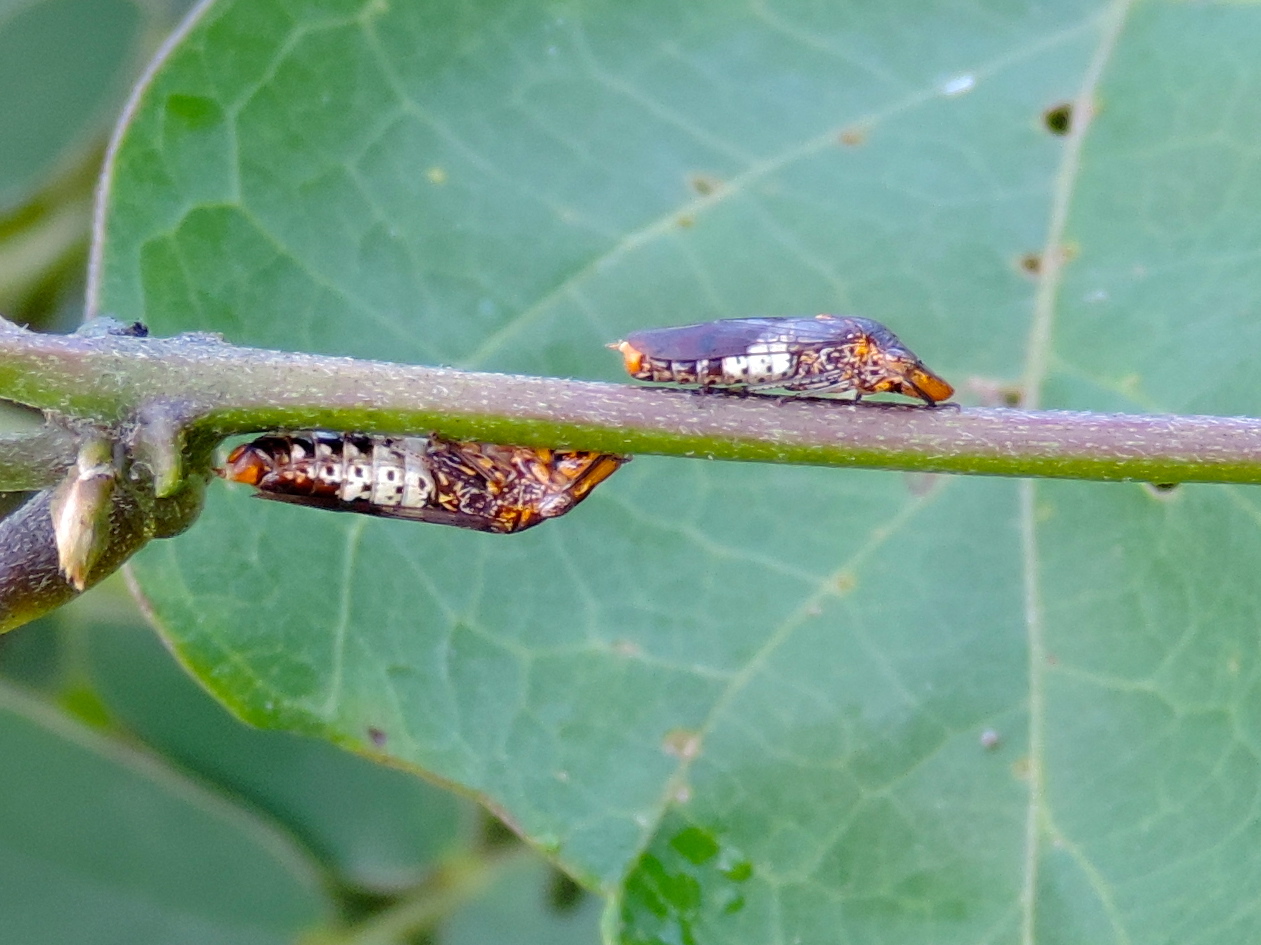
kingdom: Animalia
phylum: Arthropoda
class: Insecta
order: Hemiptera
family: Cicadellidae
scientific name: Cicadellidae
